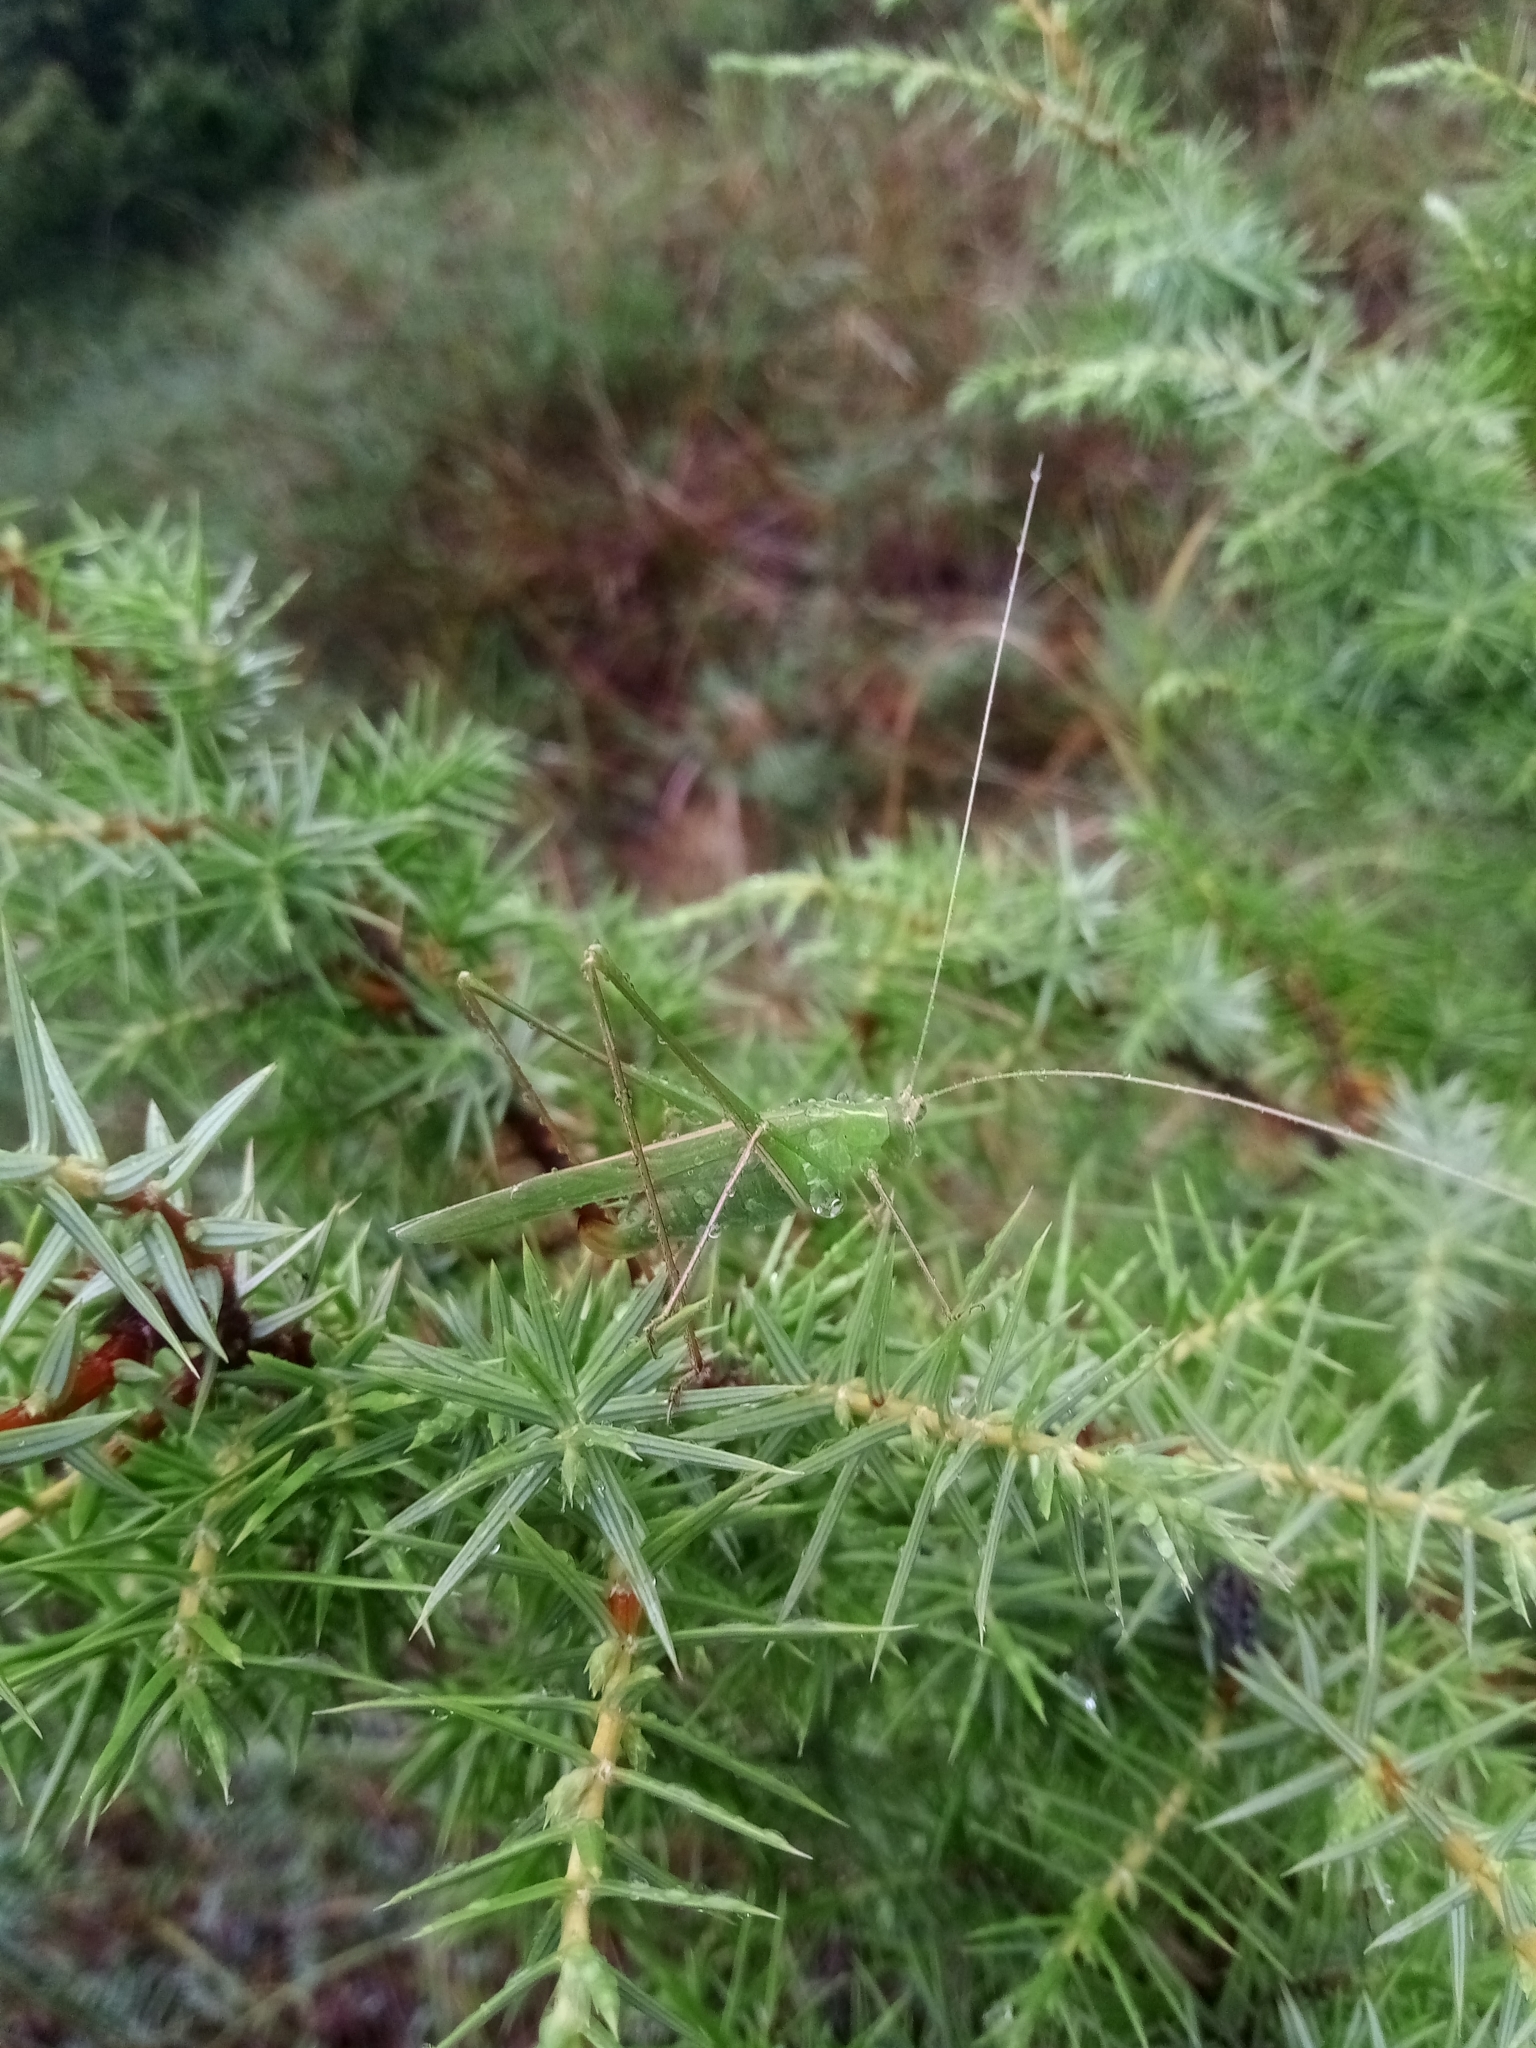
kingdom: Animalia
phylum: Arthropoda
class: Insecta
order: Orthoptera
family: Tettigoniidae
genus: Tylopsis
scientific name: Tylopsis lilifolia
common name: Lily bush-cricket
